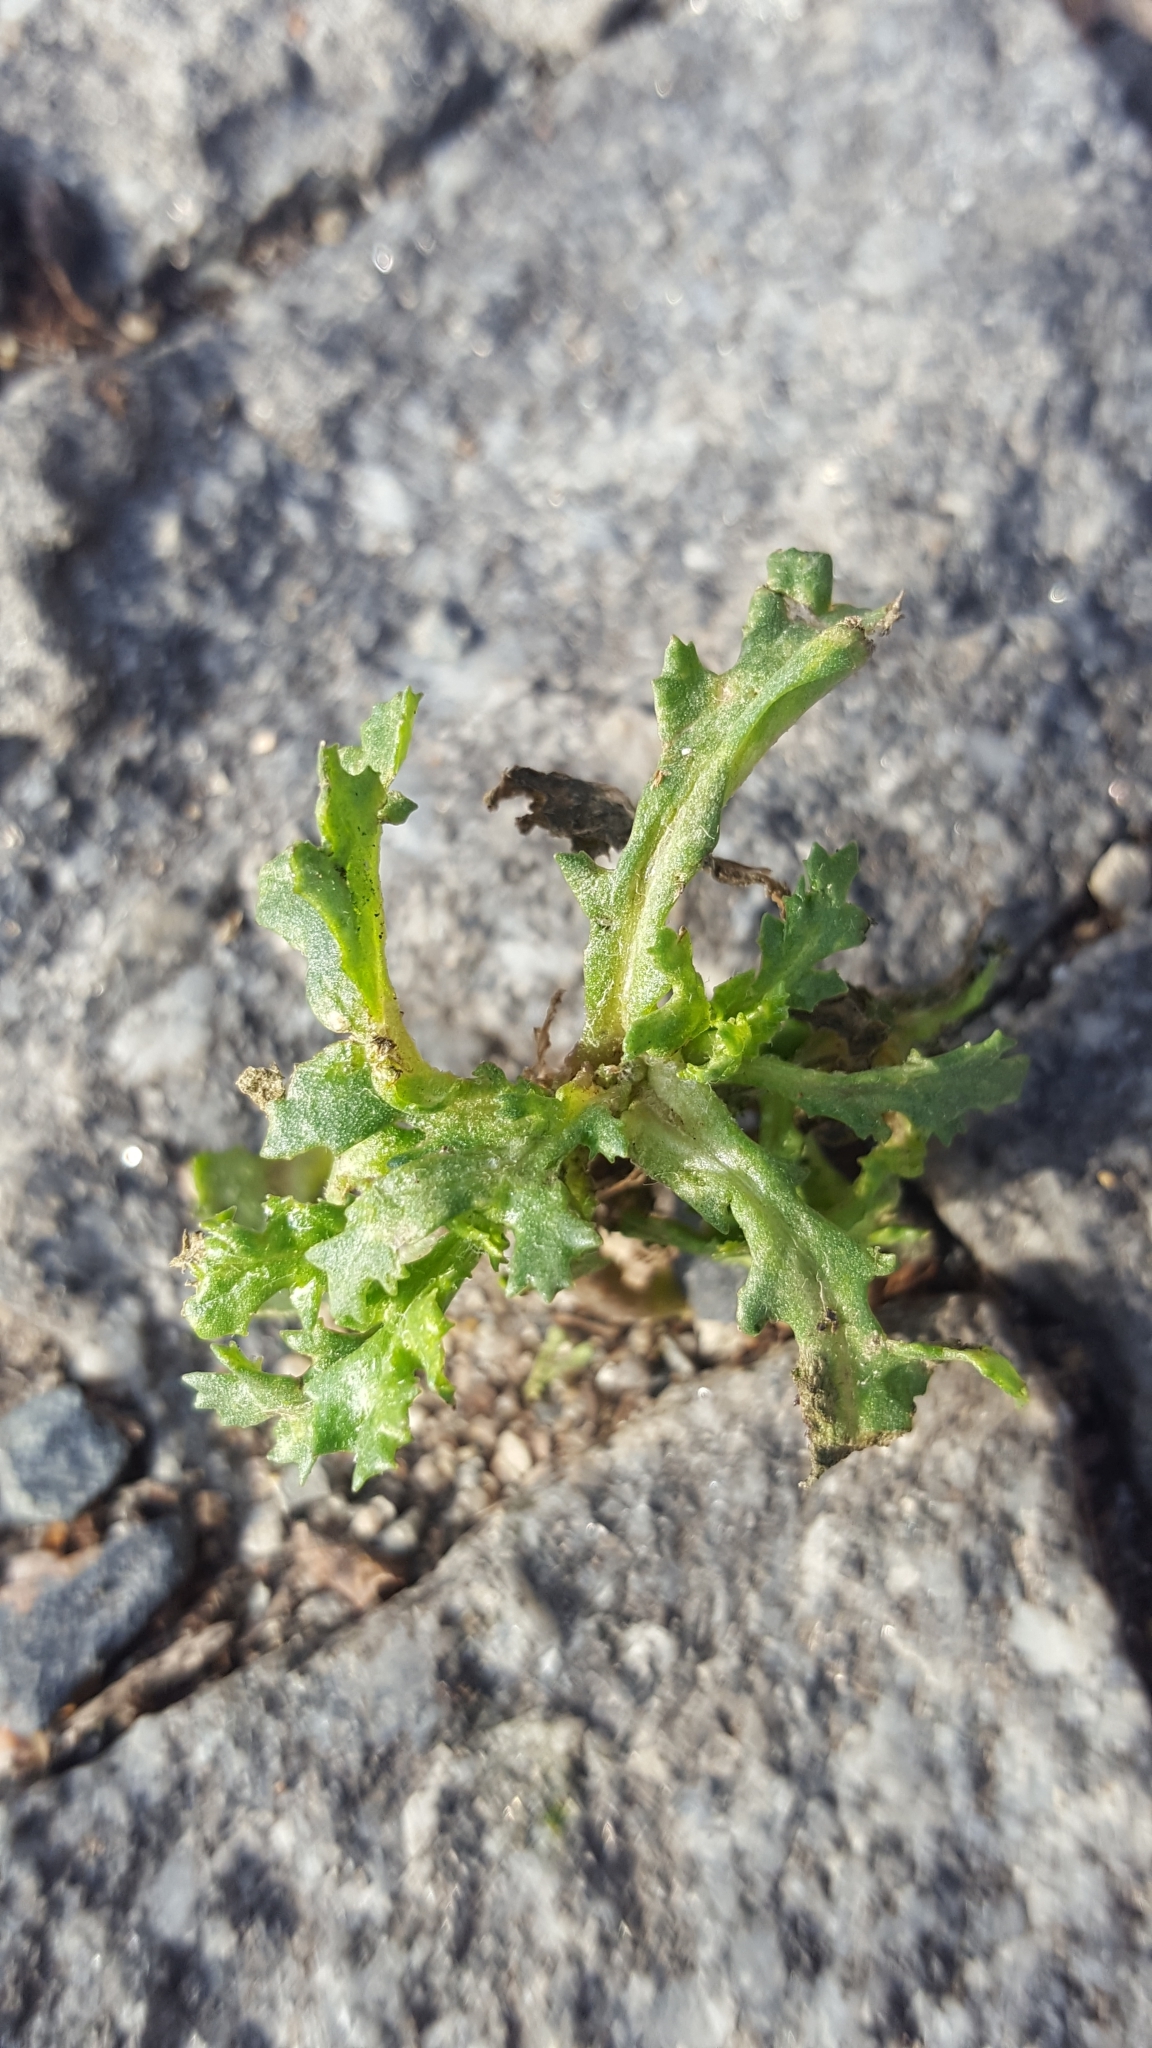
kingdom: Plantae
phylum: Tracheophyta
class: Magnoliopsida
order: Asterales
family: Asteraceae
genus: Senecio
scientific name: Senecio vulgaris
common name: Old-man-in-the-spring
